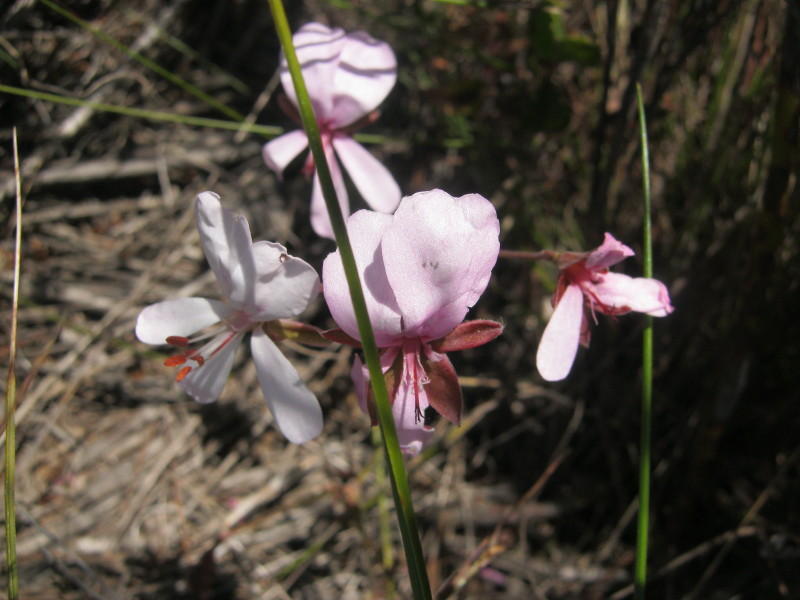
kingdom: Plantae
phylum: Tracheophyta
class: Magnoliopsida
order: Geraniales
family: Geraniaceae
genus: Pelargonium
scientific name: Pelargonium ovale
